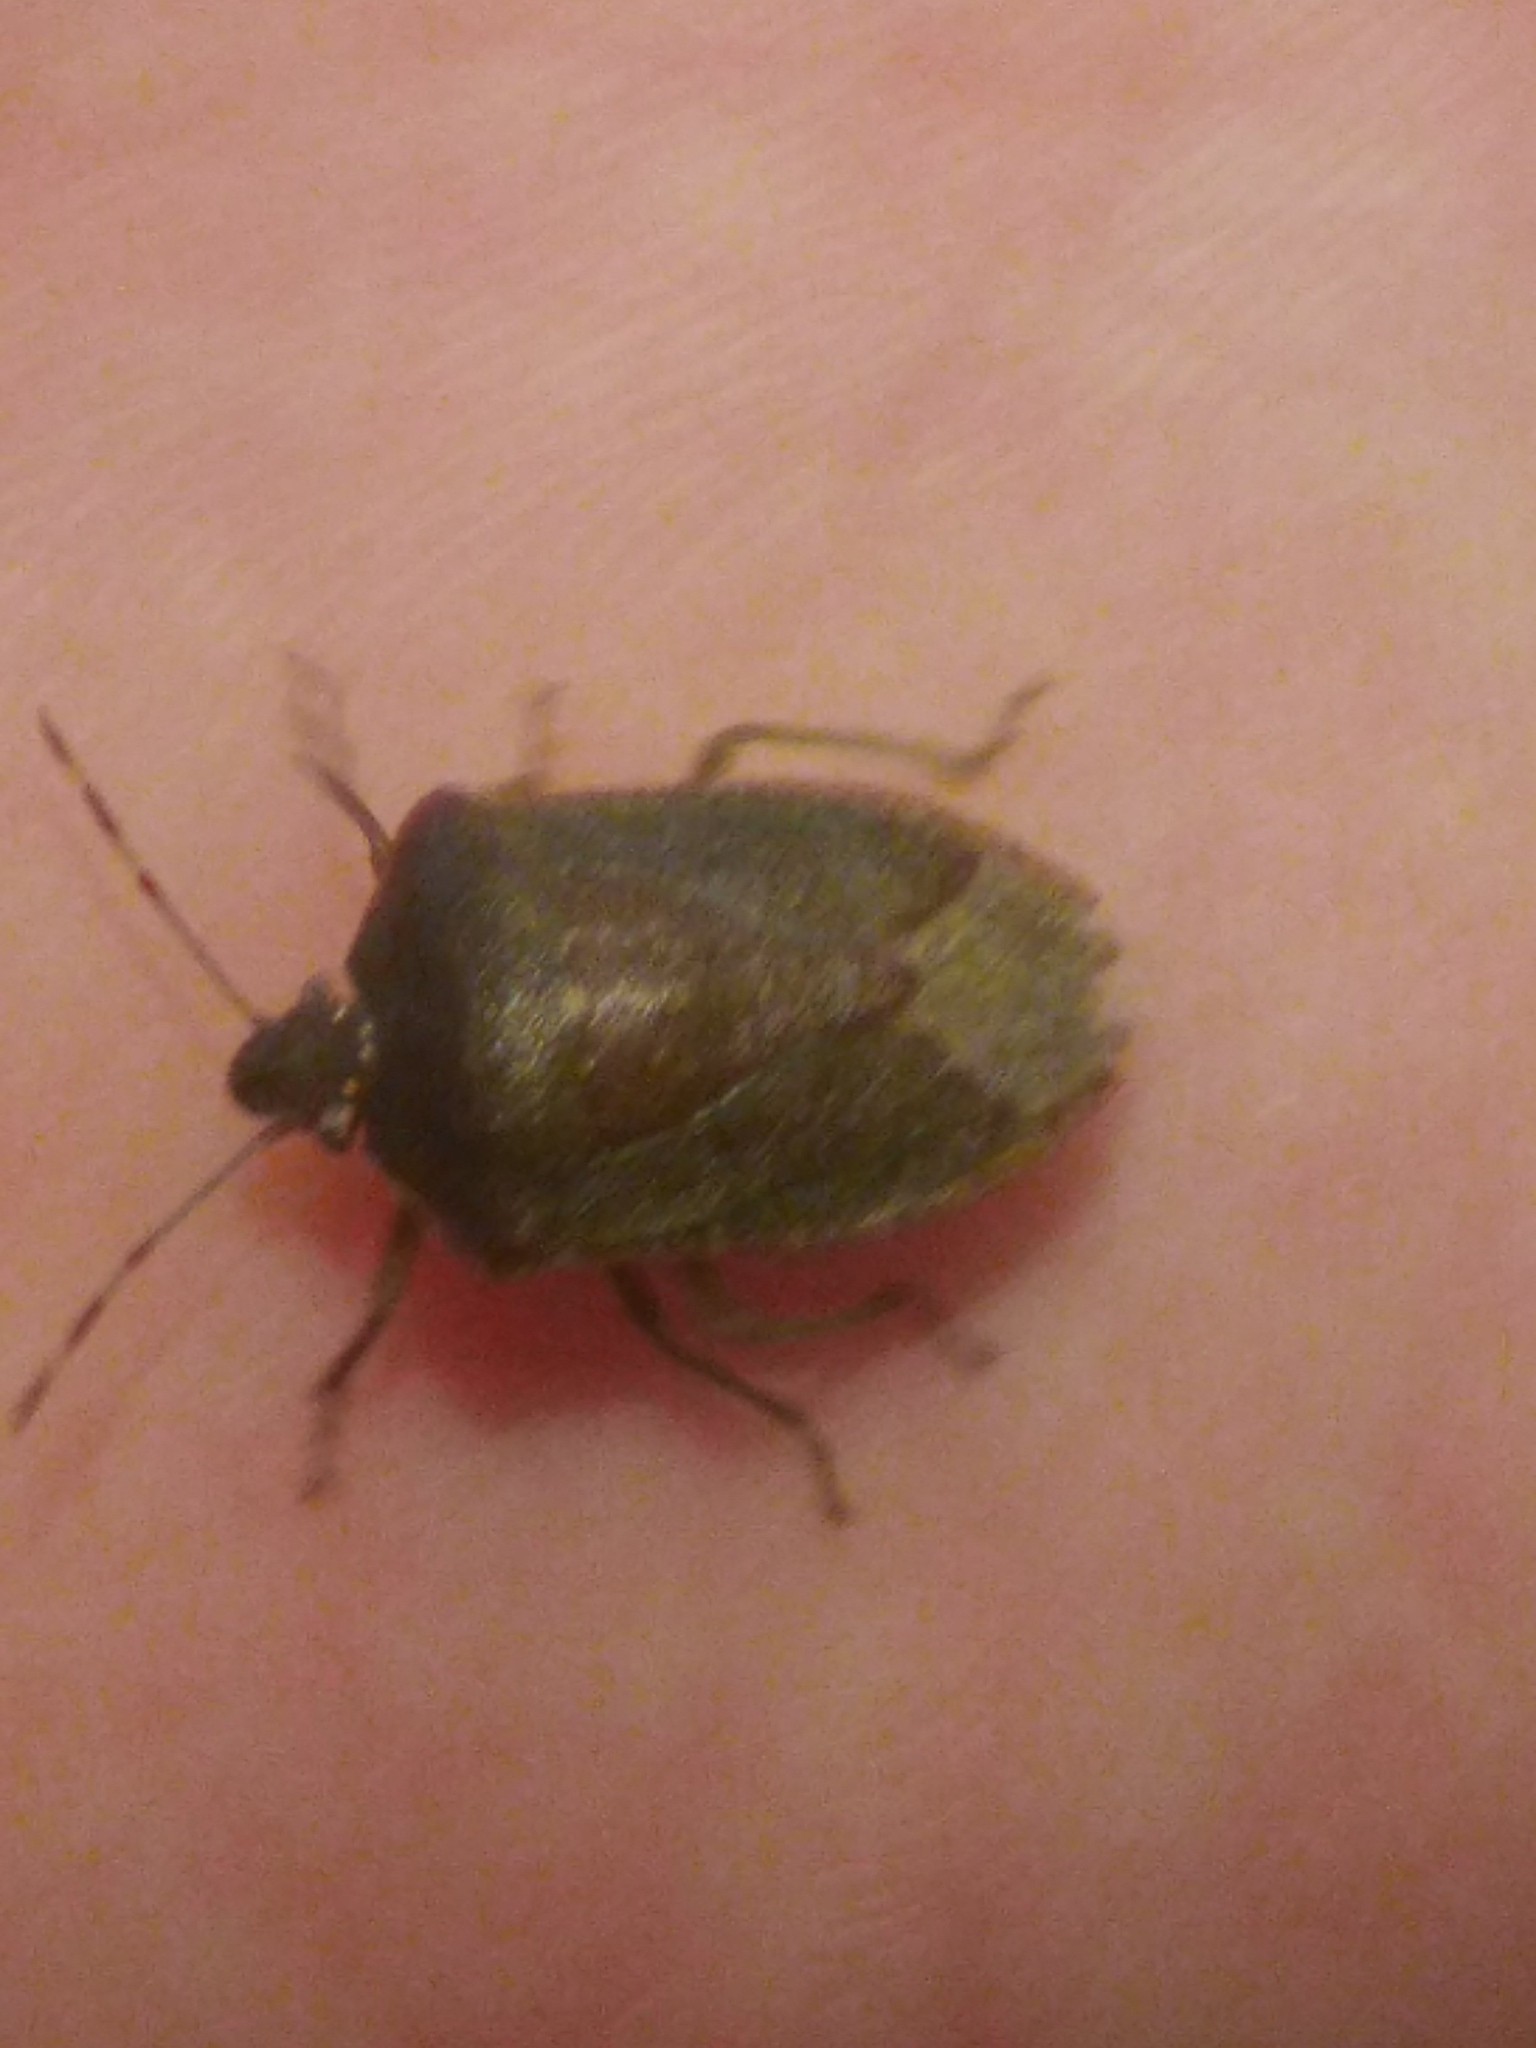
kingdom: Animalia
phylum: Arthropoda
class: Insecta
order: Hemiptera
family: Pentatomidae
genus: Nezara
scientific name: Nezara viridula
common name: Southern green stink bug
